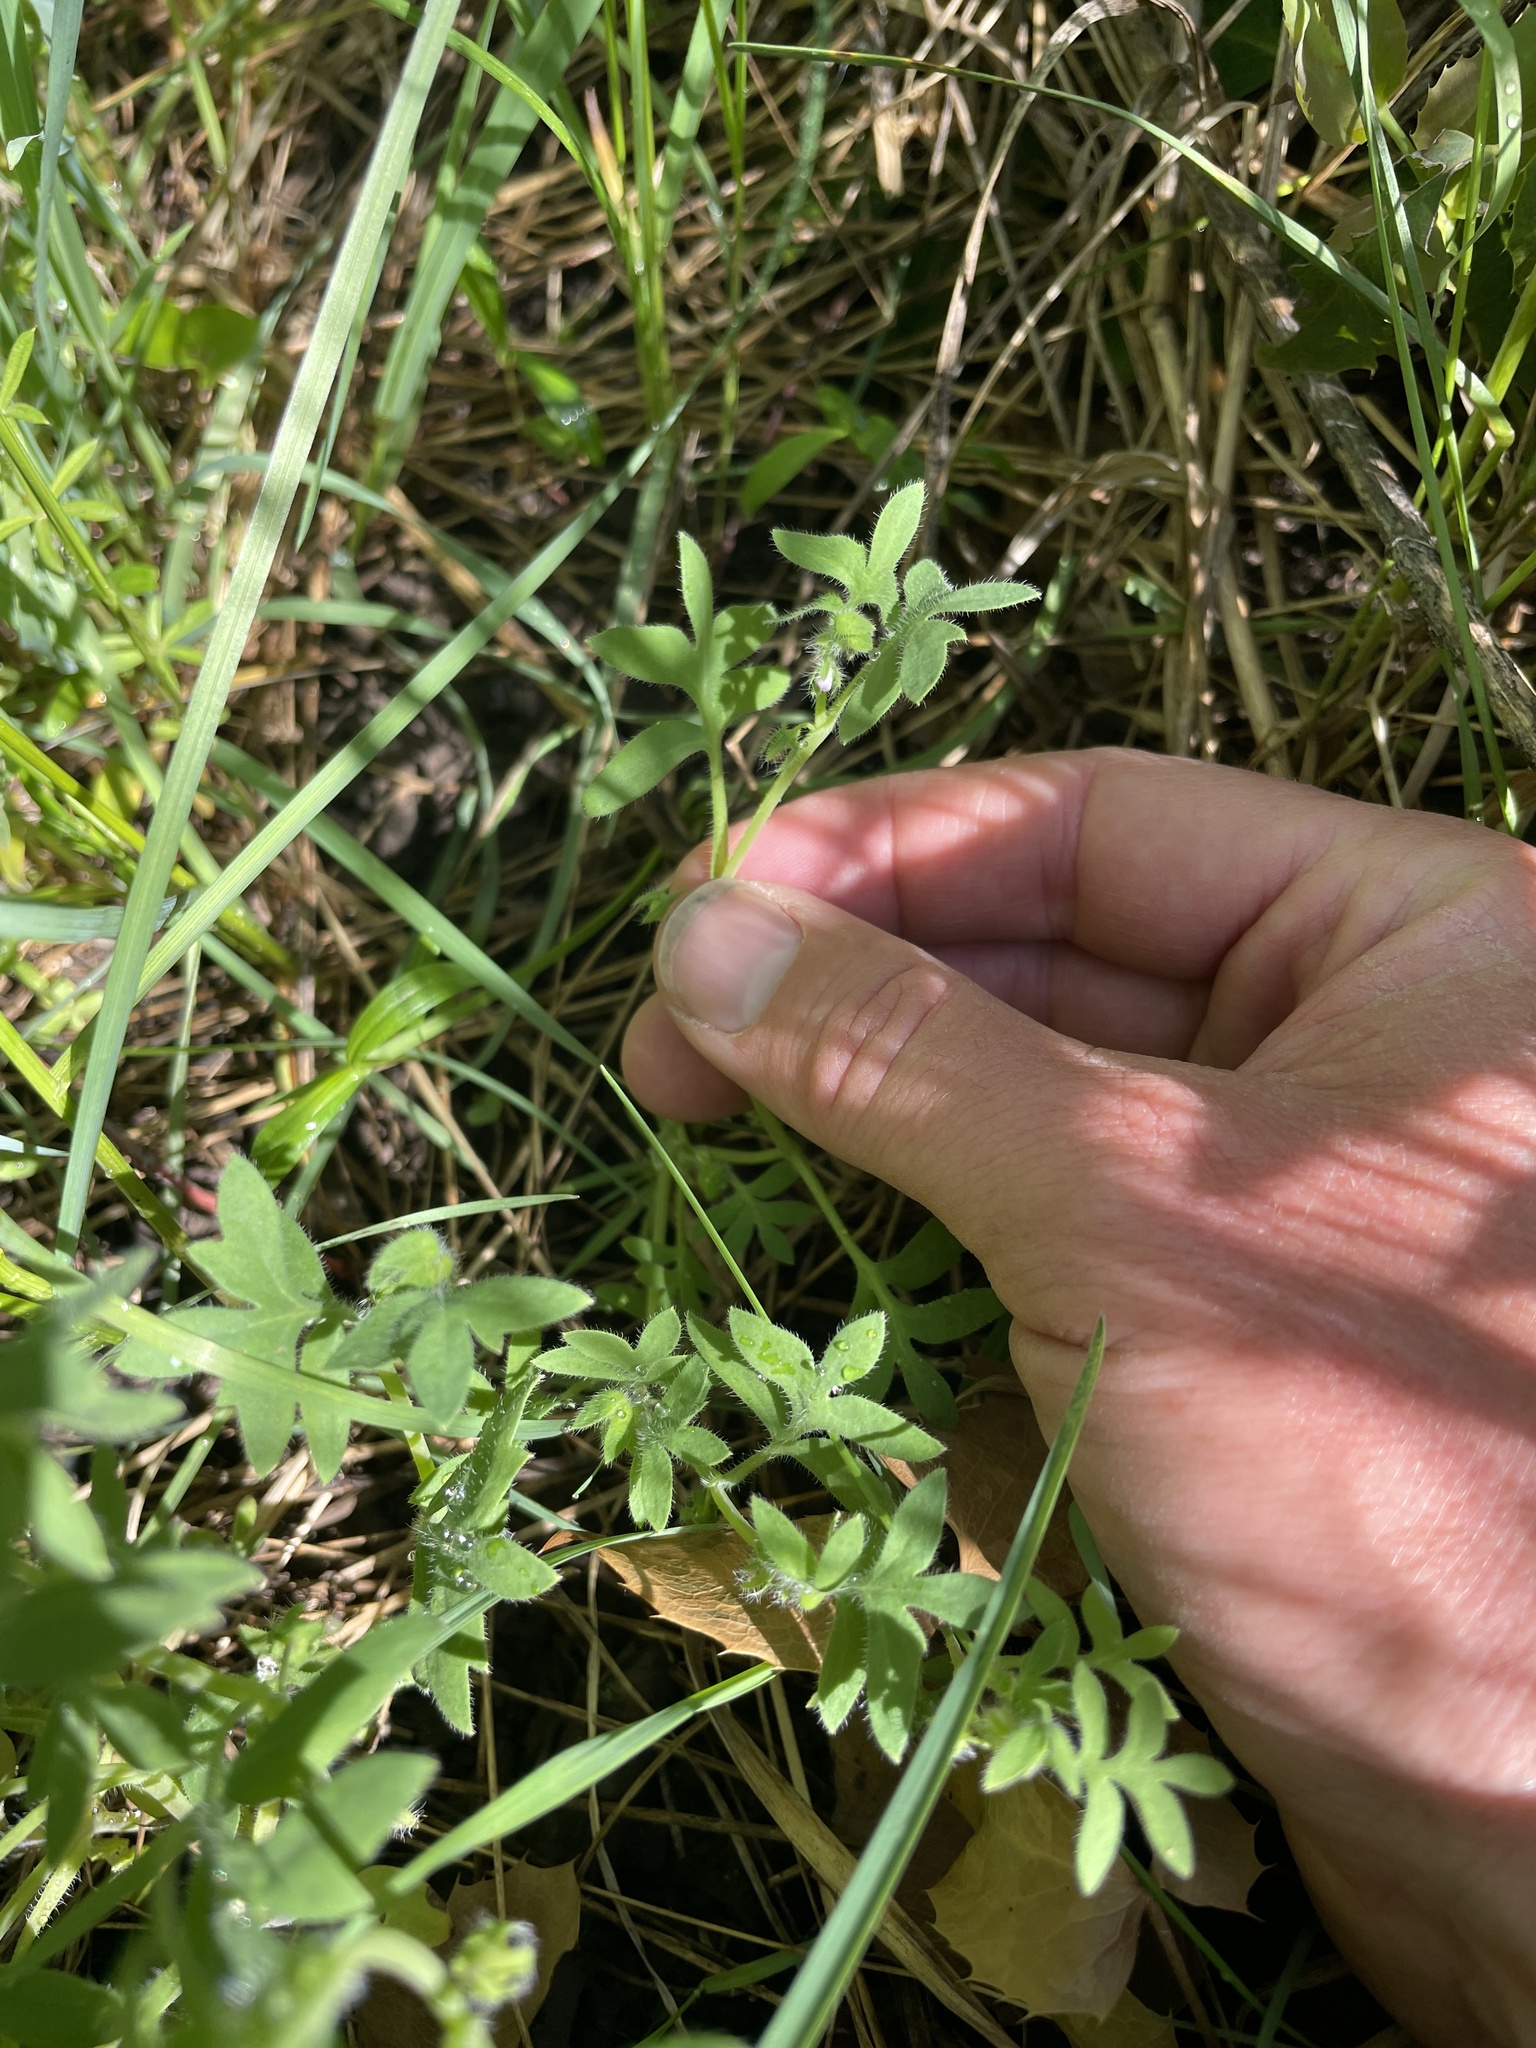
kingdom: Plantae
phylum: Tracheophyta
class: Magnoliopsida
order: Boraginales
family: Hydrophyllaceae
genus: Nemophila
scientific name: Nemophila breviflora
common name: Great basin baby-blue-eyes
